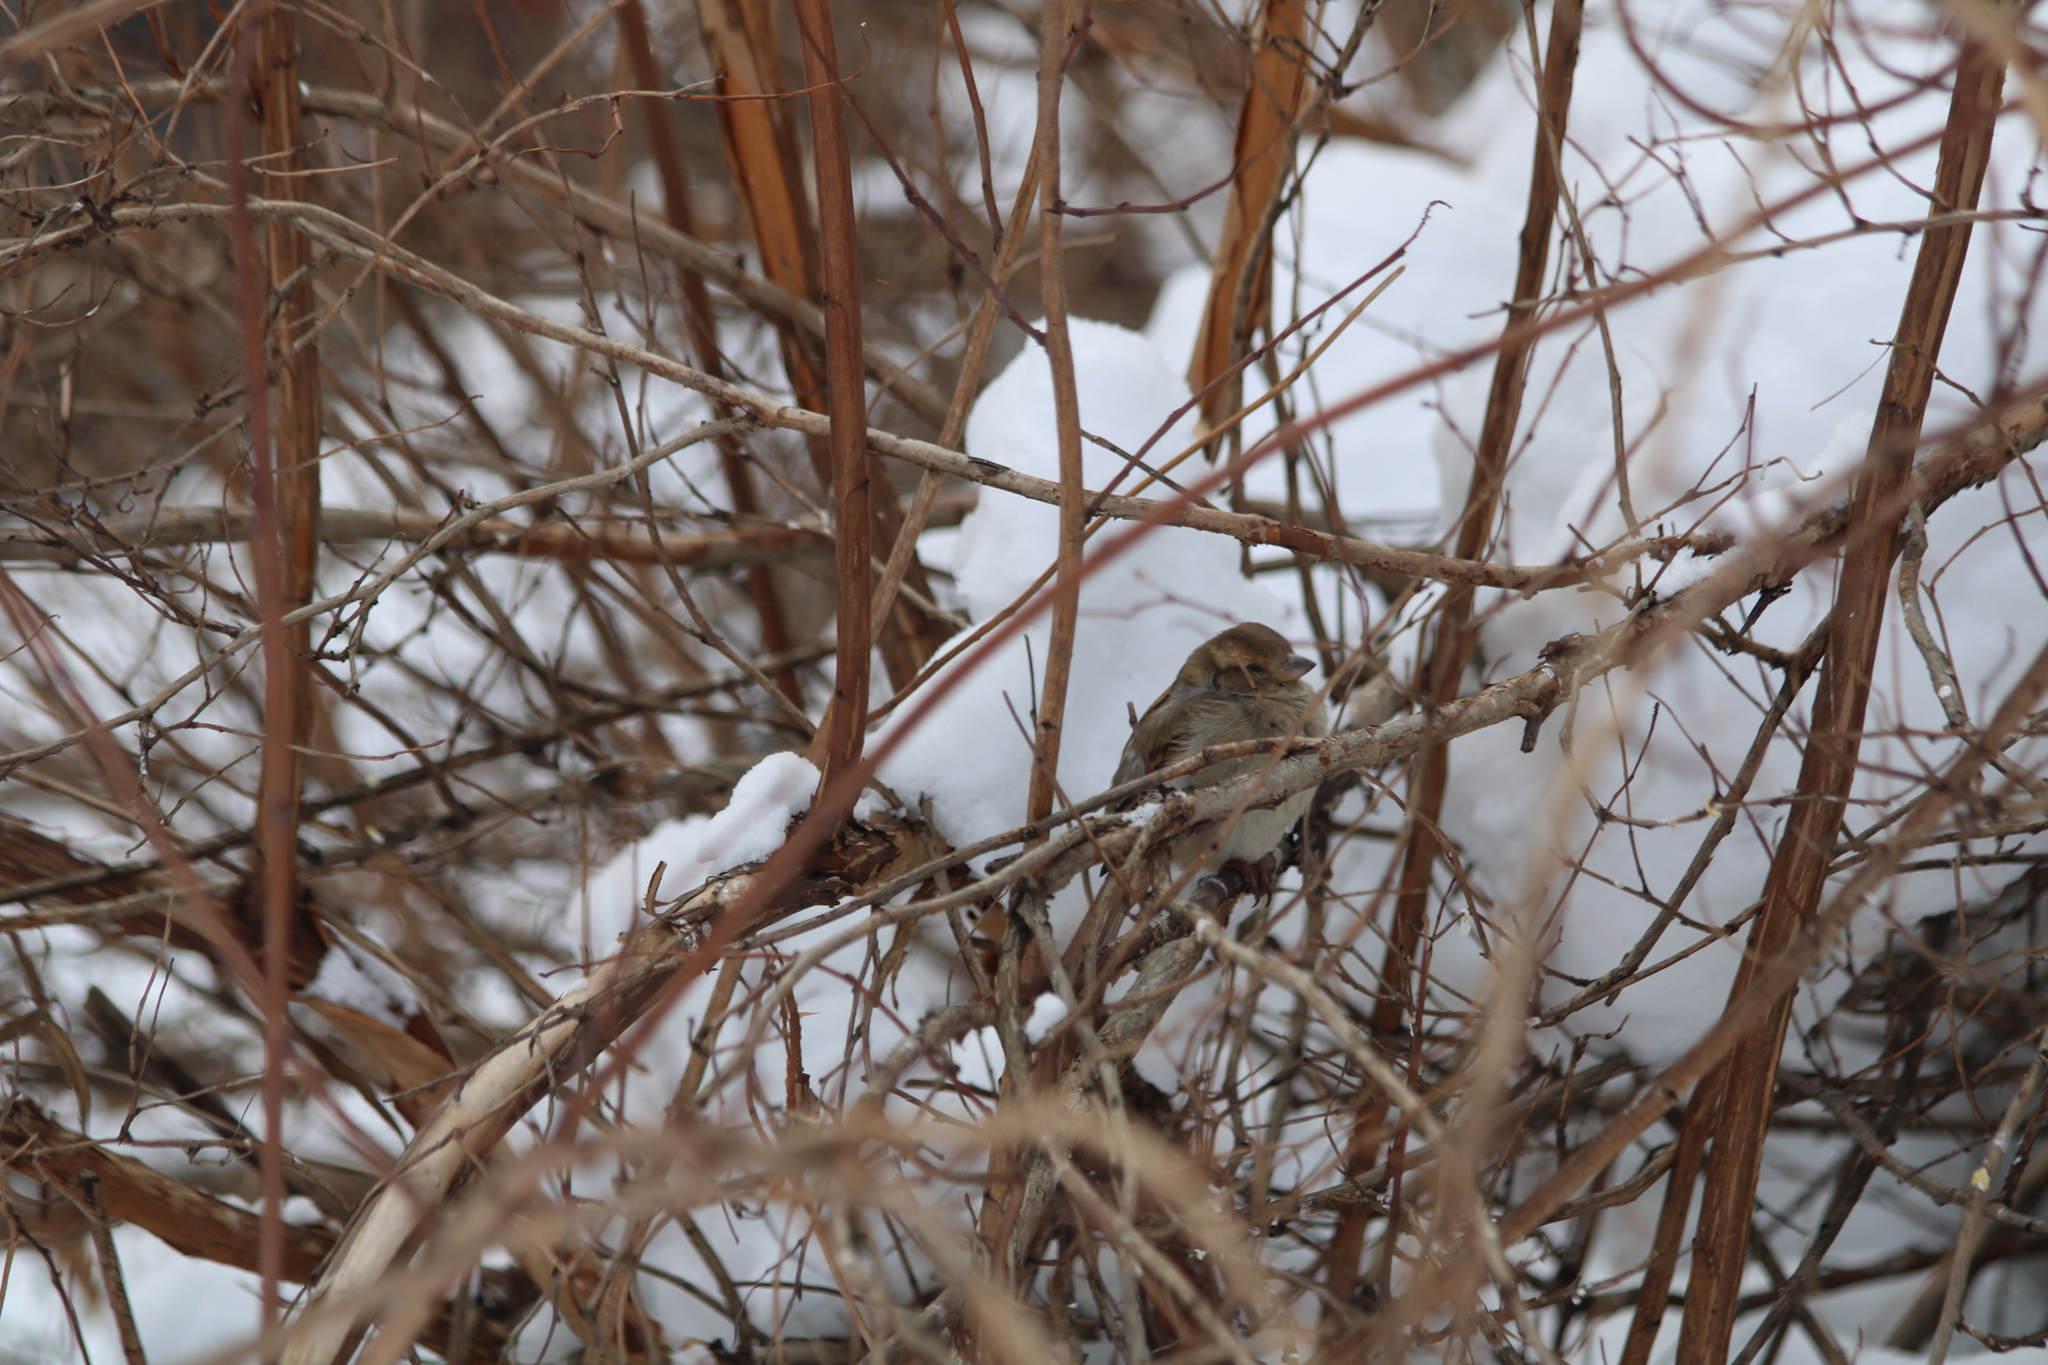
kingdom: Animalia
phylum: Chordata
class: Aves
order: Passeriformes
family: Passeridae
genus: Passer
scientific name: Passer domesticus
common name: House sparrow
